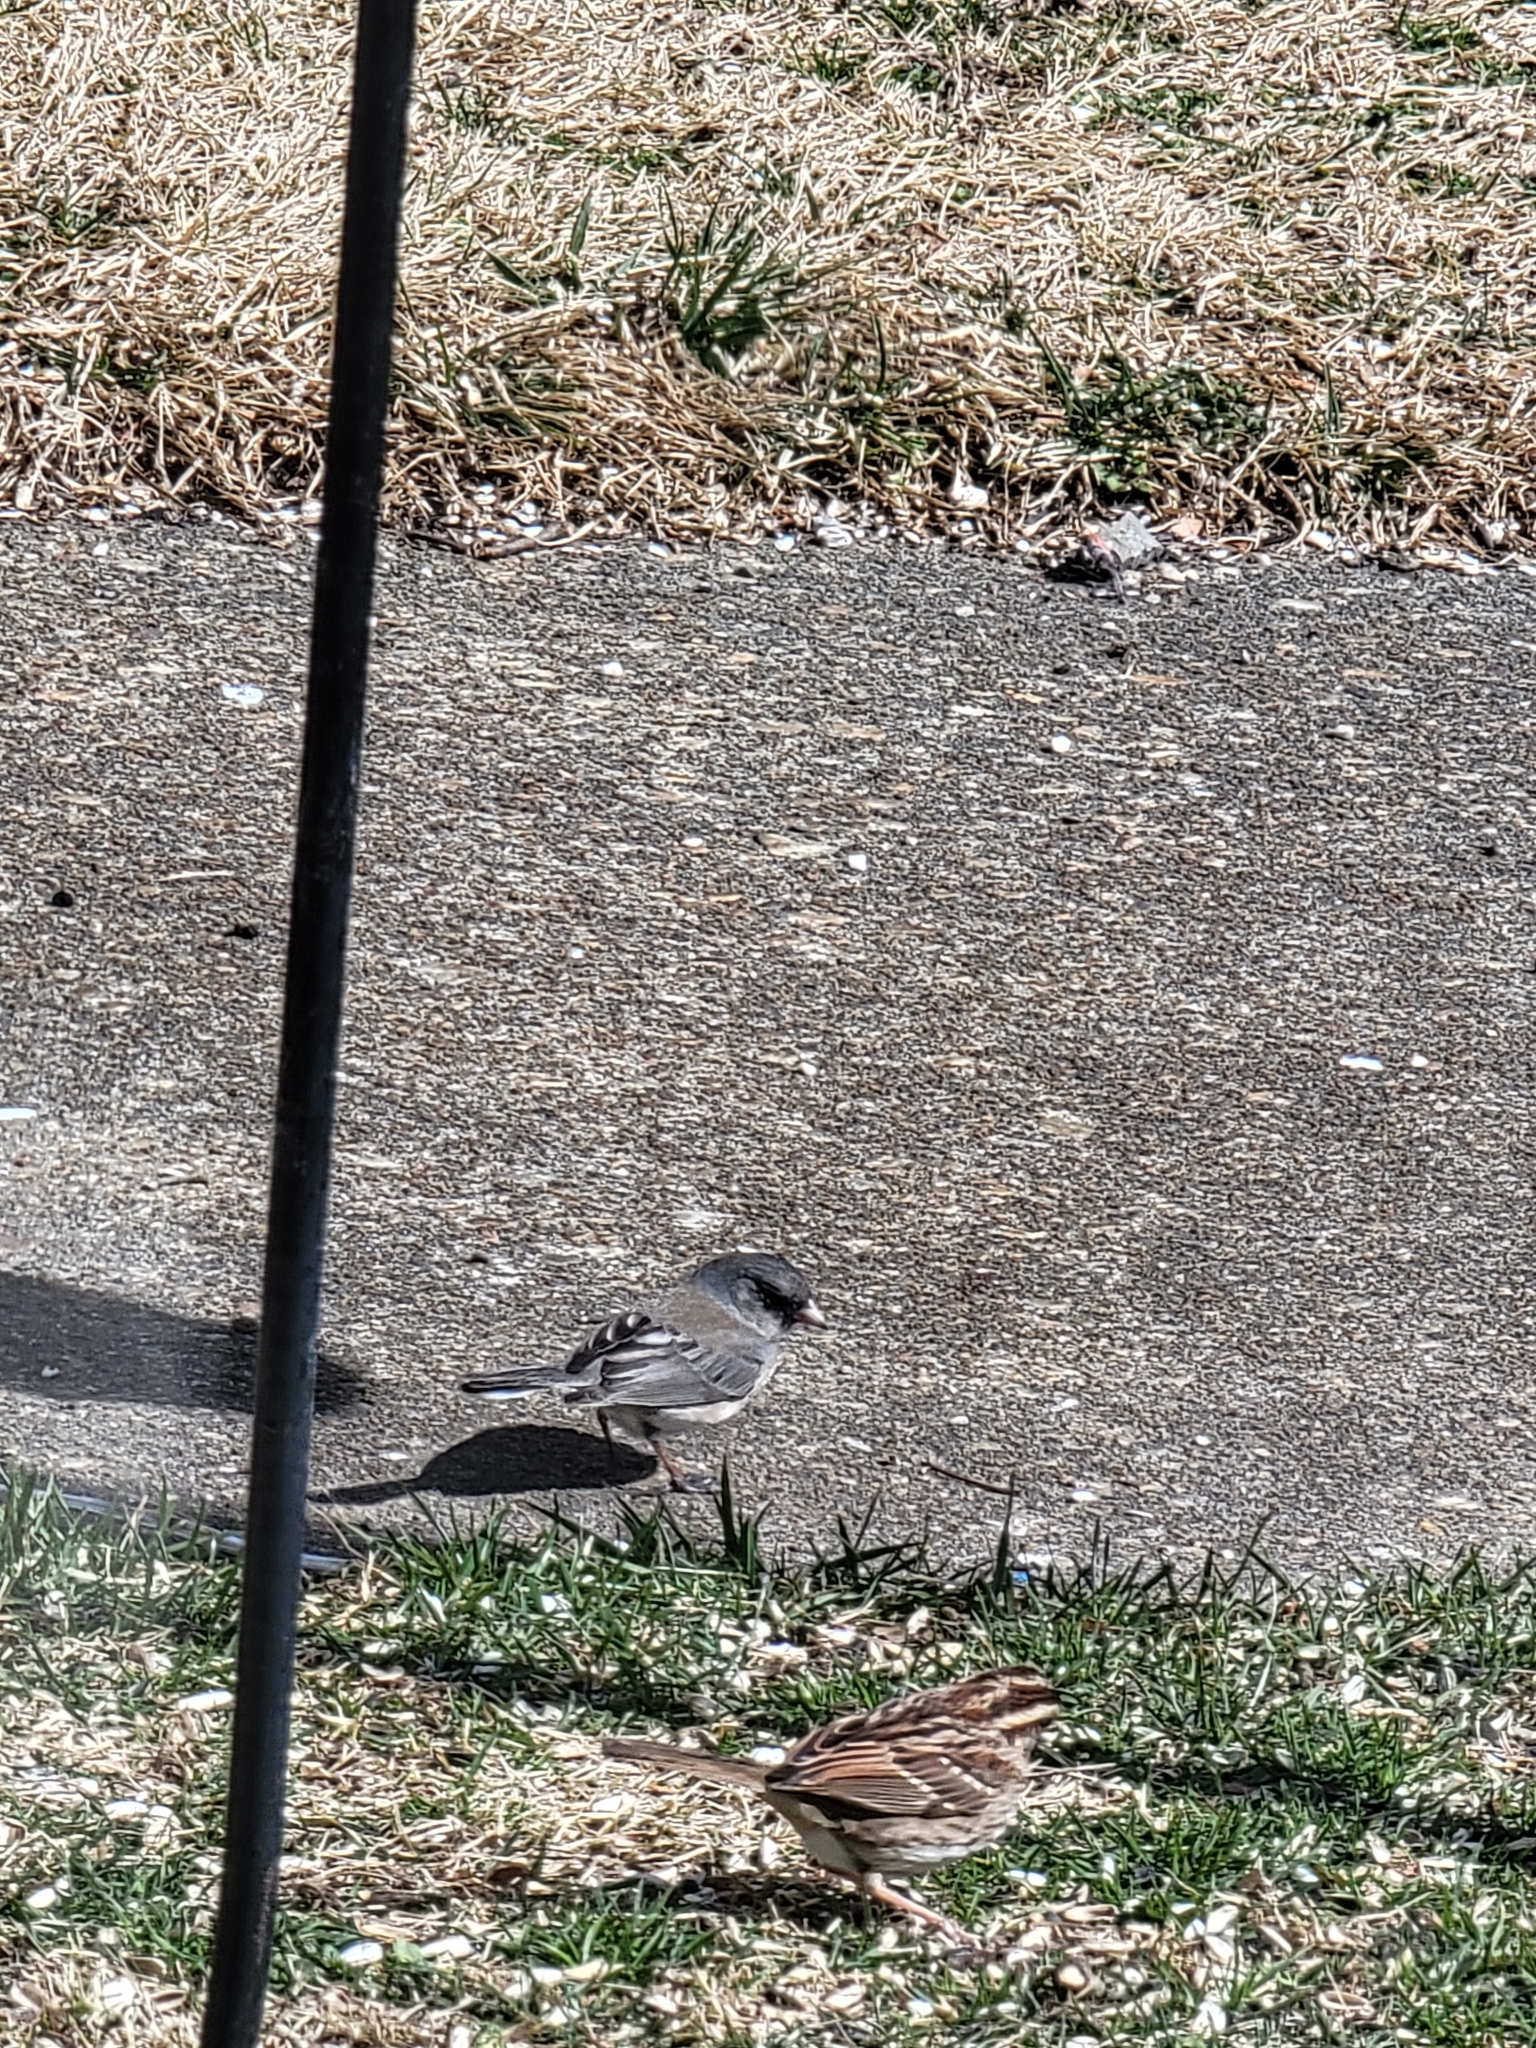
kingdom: Animalia
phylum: Chordata
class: Aves
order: Passeriformes
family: Passerellidae
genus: Junco
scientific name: Junco hyemalis
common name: Dark-eyed junco
